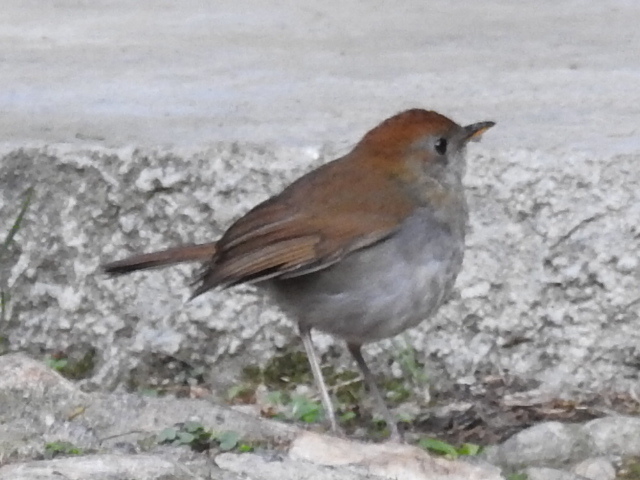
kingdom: Animalia
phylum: Chordata
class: Aves
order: Passeriformes
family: Turdidae
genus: Catharus
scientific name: Catharus frantzii
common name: Ruddy-capped nightingale-thrush
